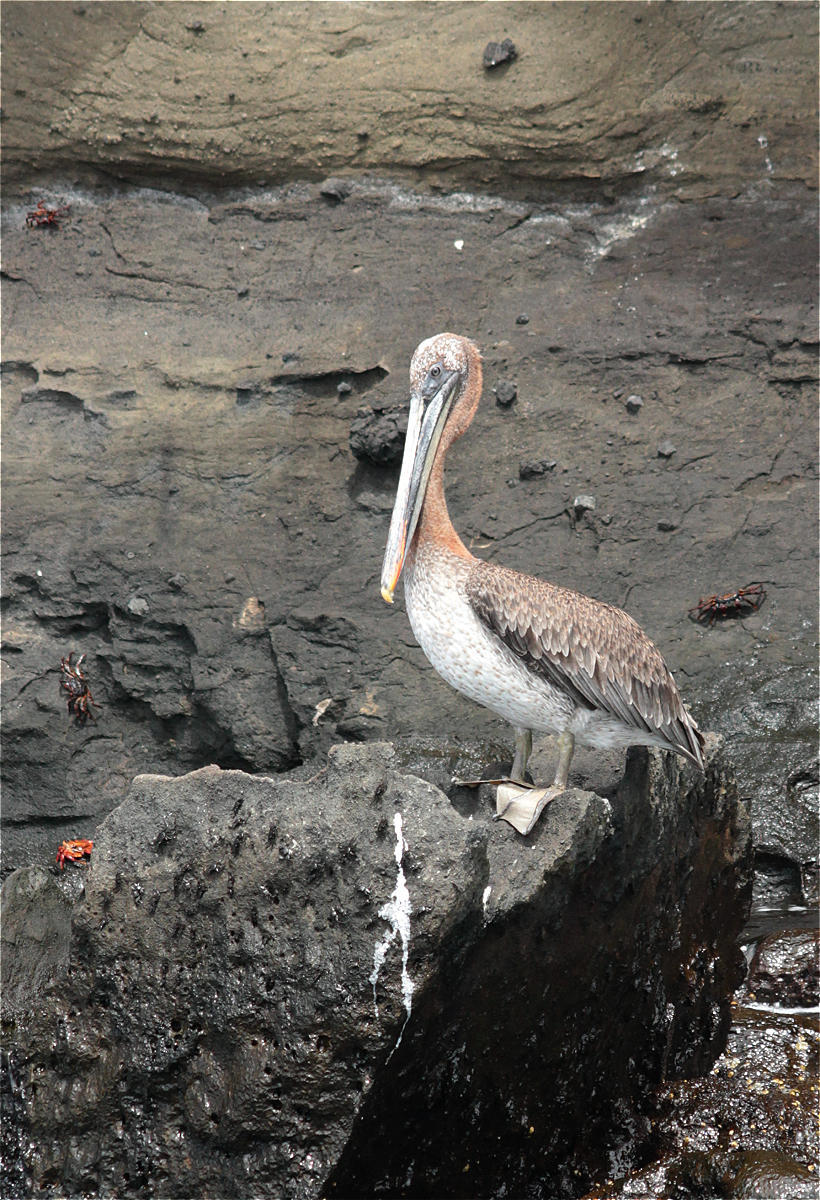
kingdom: Animalia
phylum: Chordata
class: Aves
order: Pelecaniformes
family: Pelecanidae
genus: Pelecanus
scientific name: Pelecanus occidentalis
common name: Brown pelican
